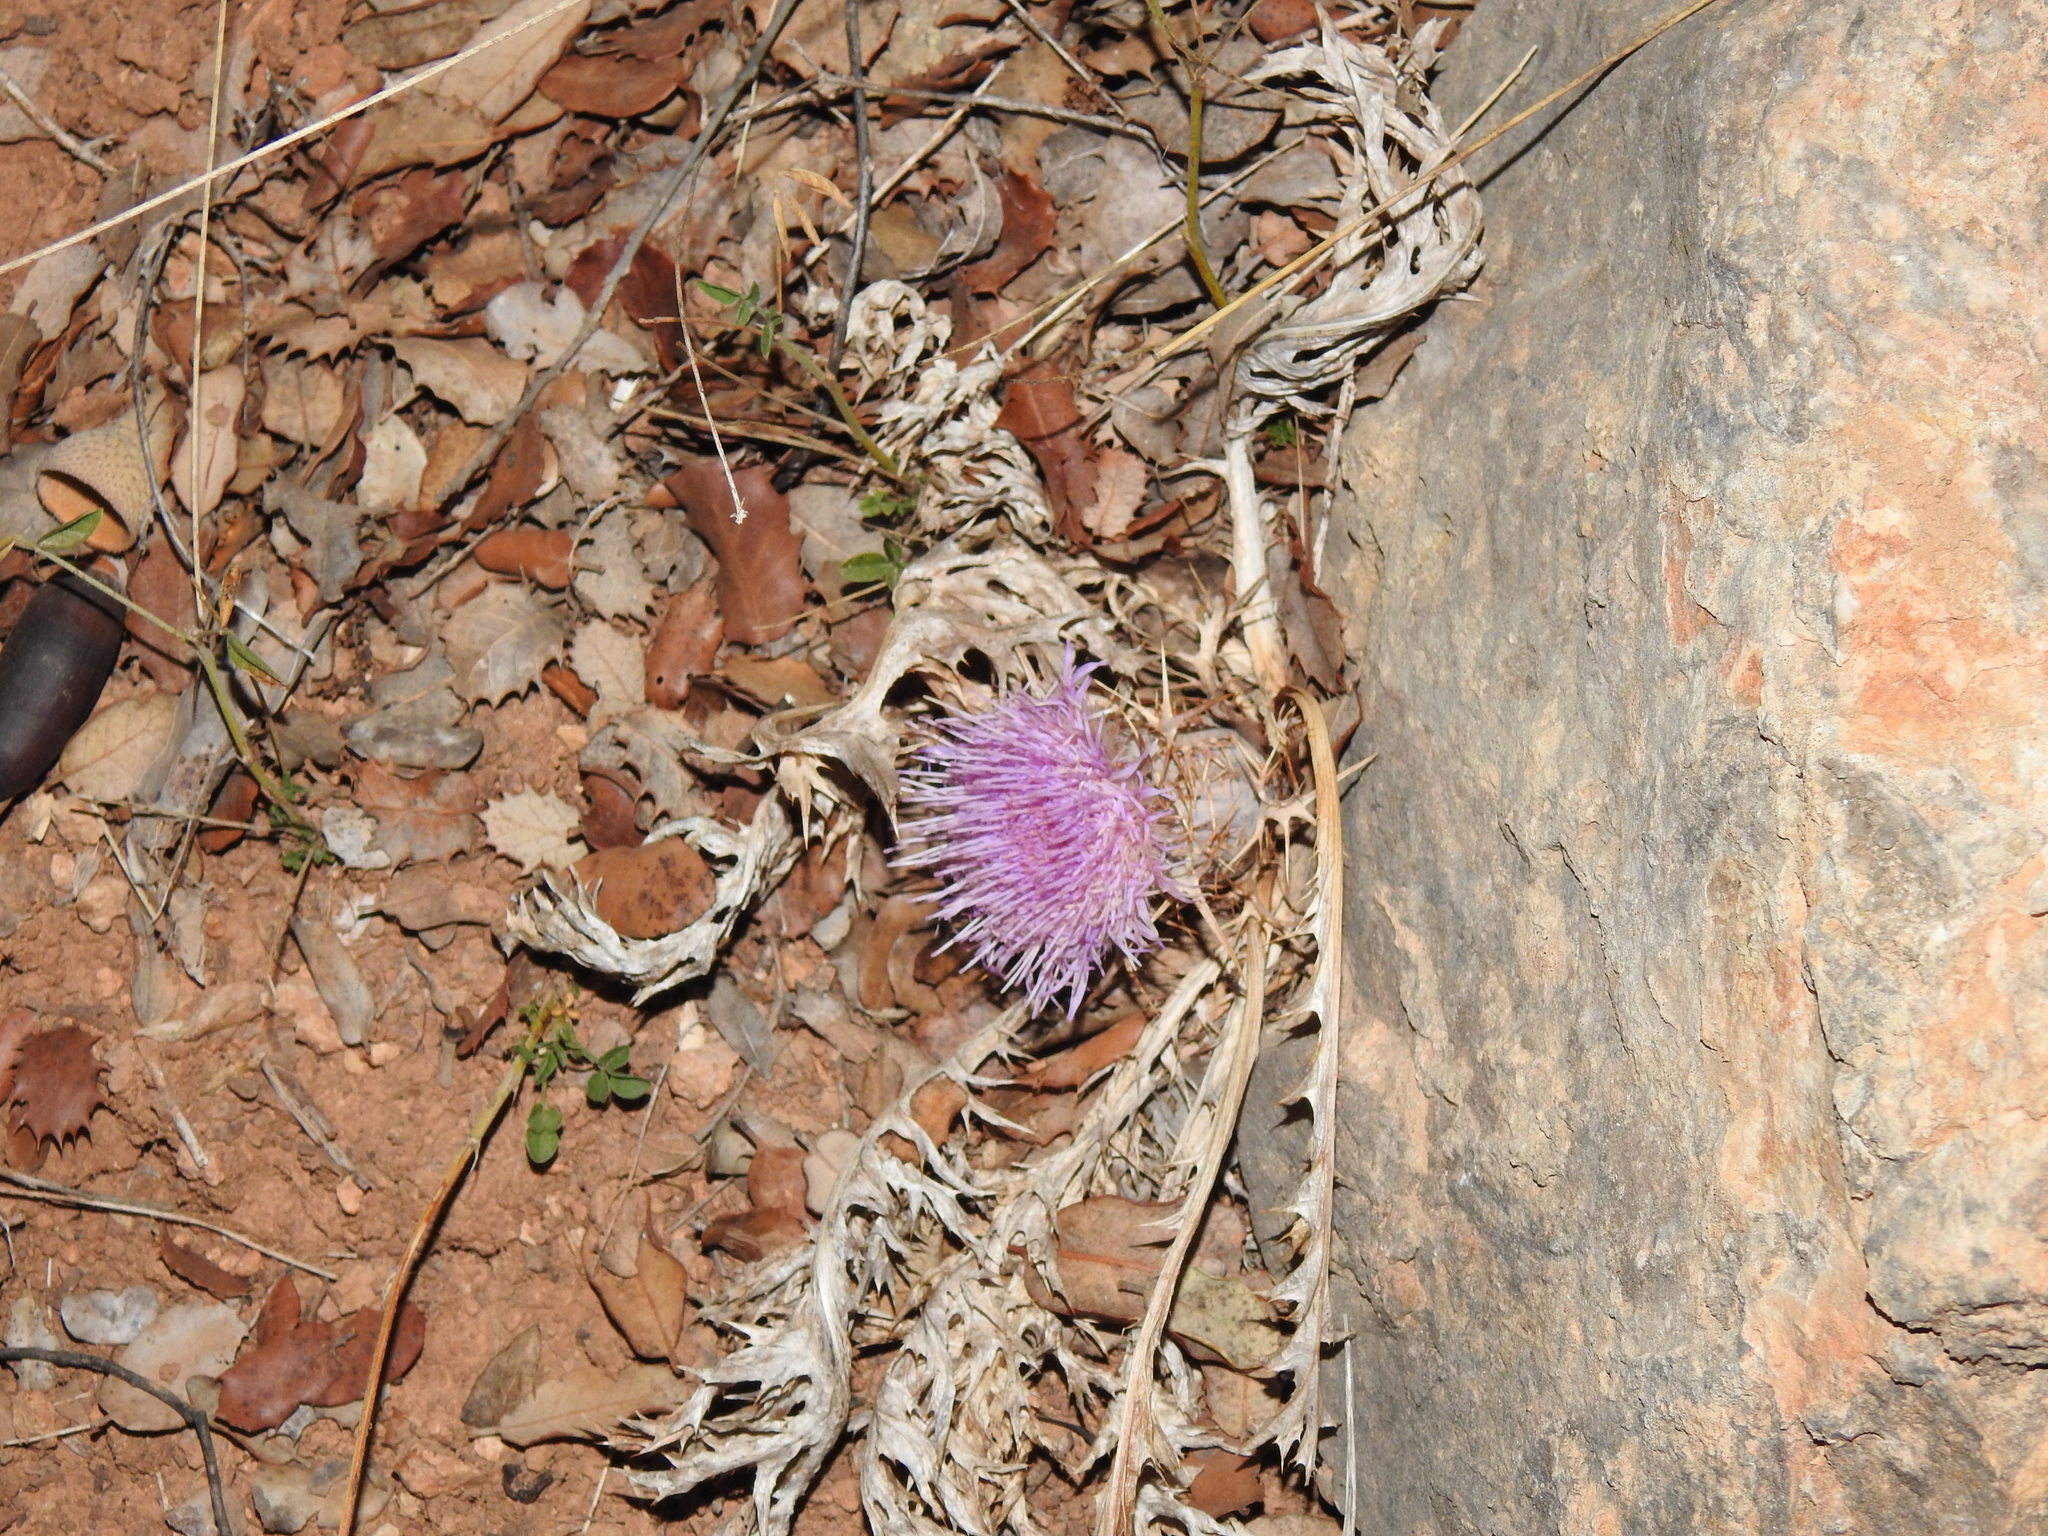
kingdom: Plantae
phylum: Tracheophyta
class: Magnoliopsida
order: Asterales
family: Asteraceae
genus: Chamaeleon
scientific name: Chamaeleon gummifer
